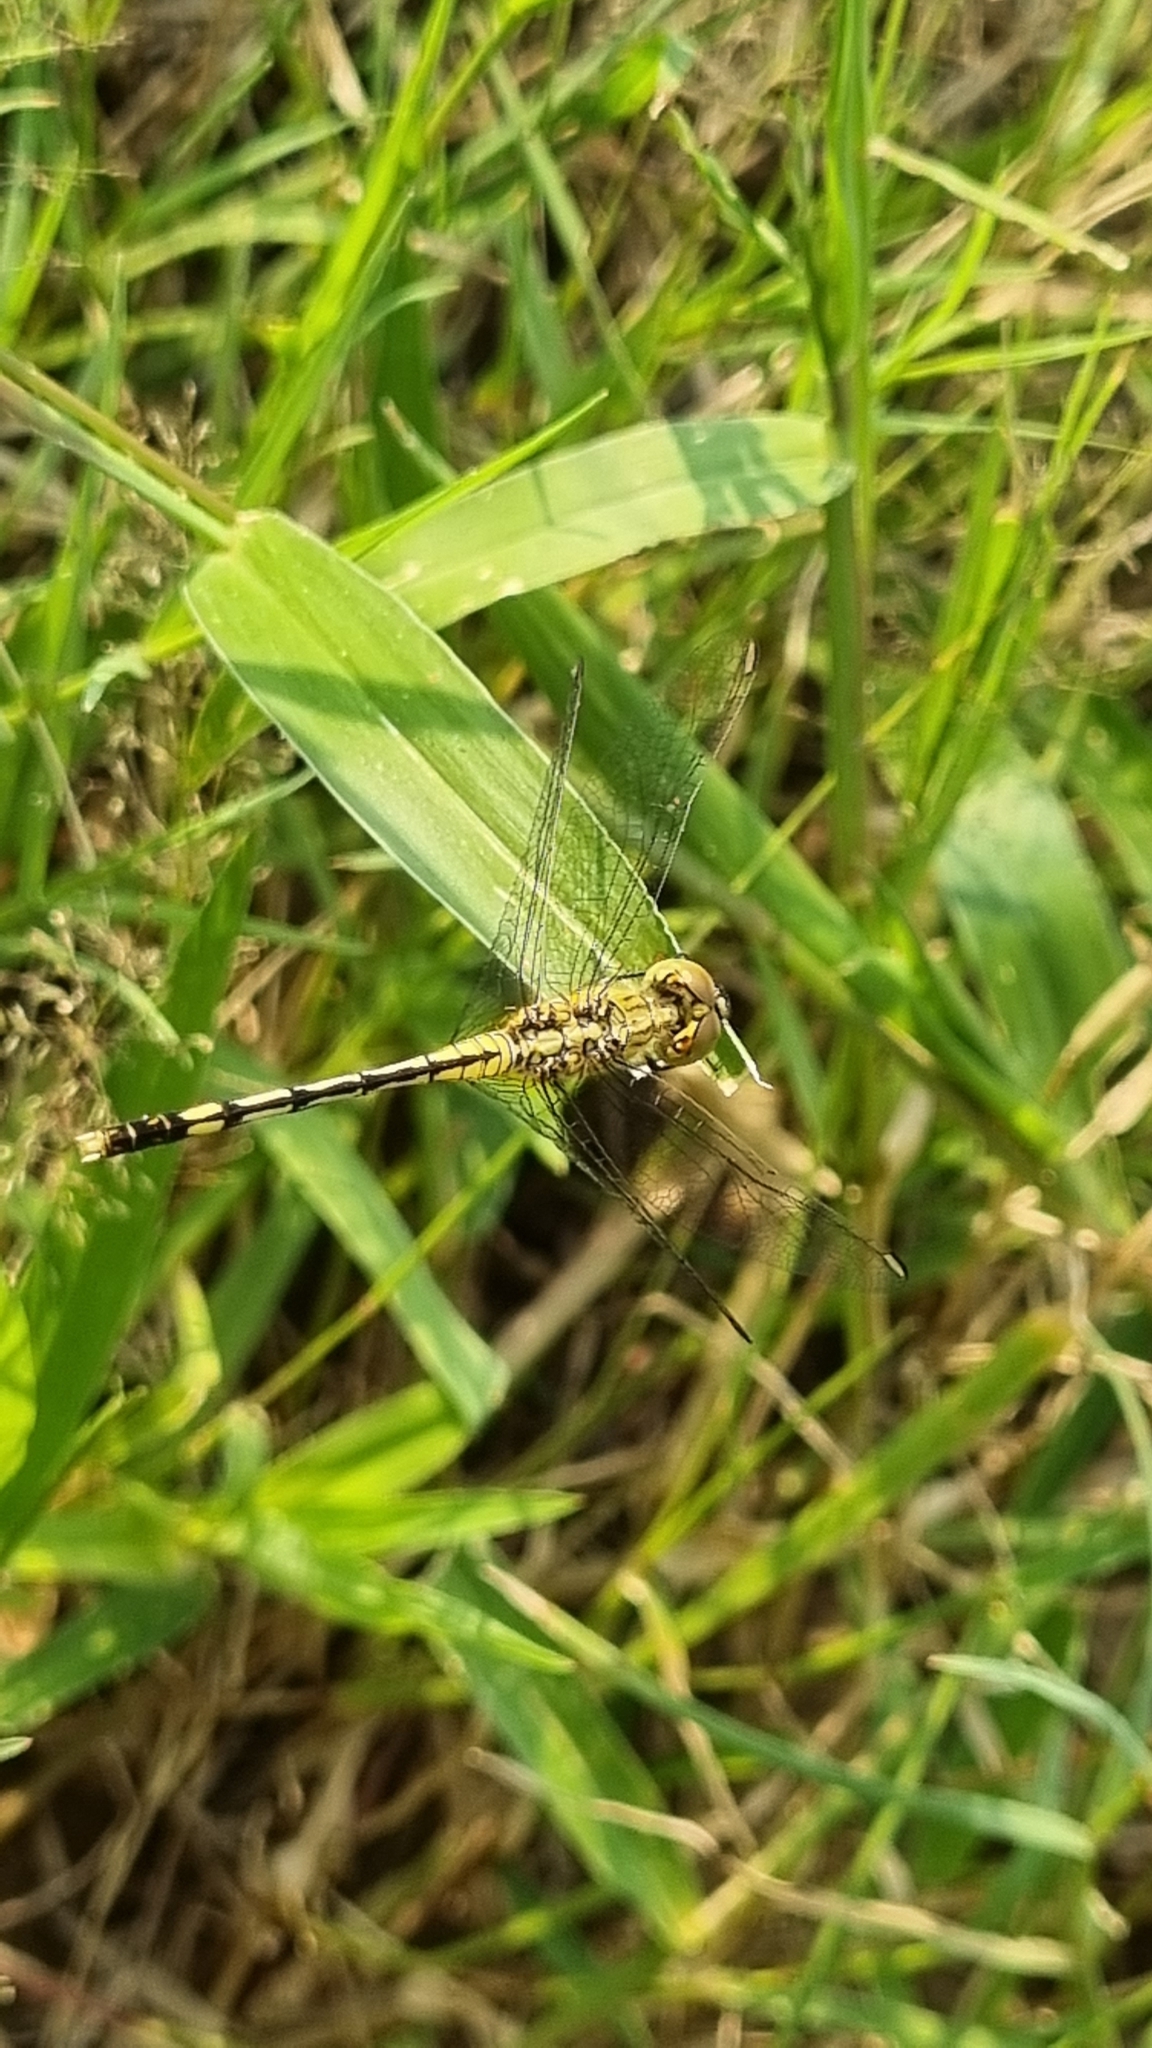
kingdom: Animalia
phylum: Arthropoda
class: Insecta
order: Odonata
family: Libellulidae
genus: Diplacodes
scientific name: Diplacodes trivialis
